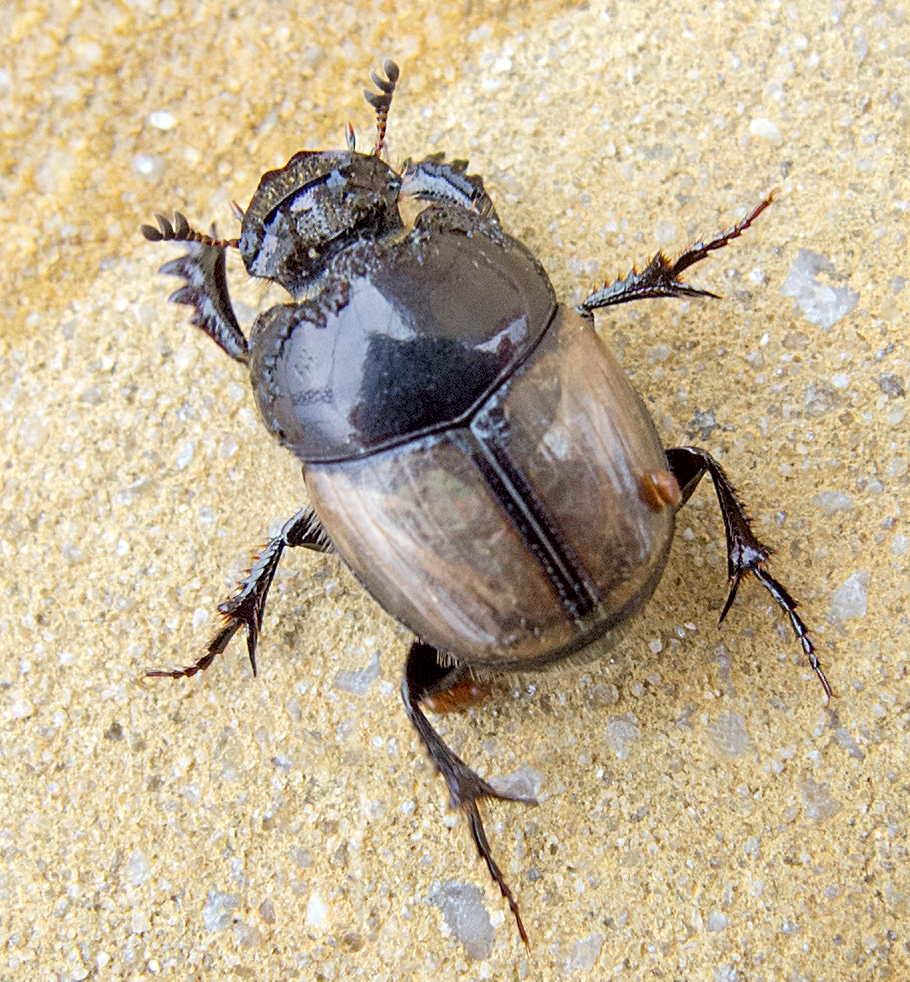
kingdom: Animalia
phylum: Arthropoda
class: Insecta
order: Coleoptera
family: Scarabaeidae
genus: Onthophagus
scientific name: Onthophagus lucidus
